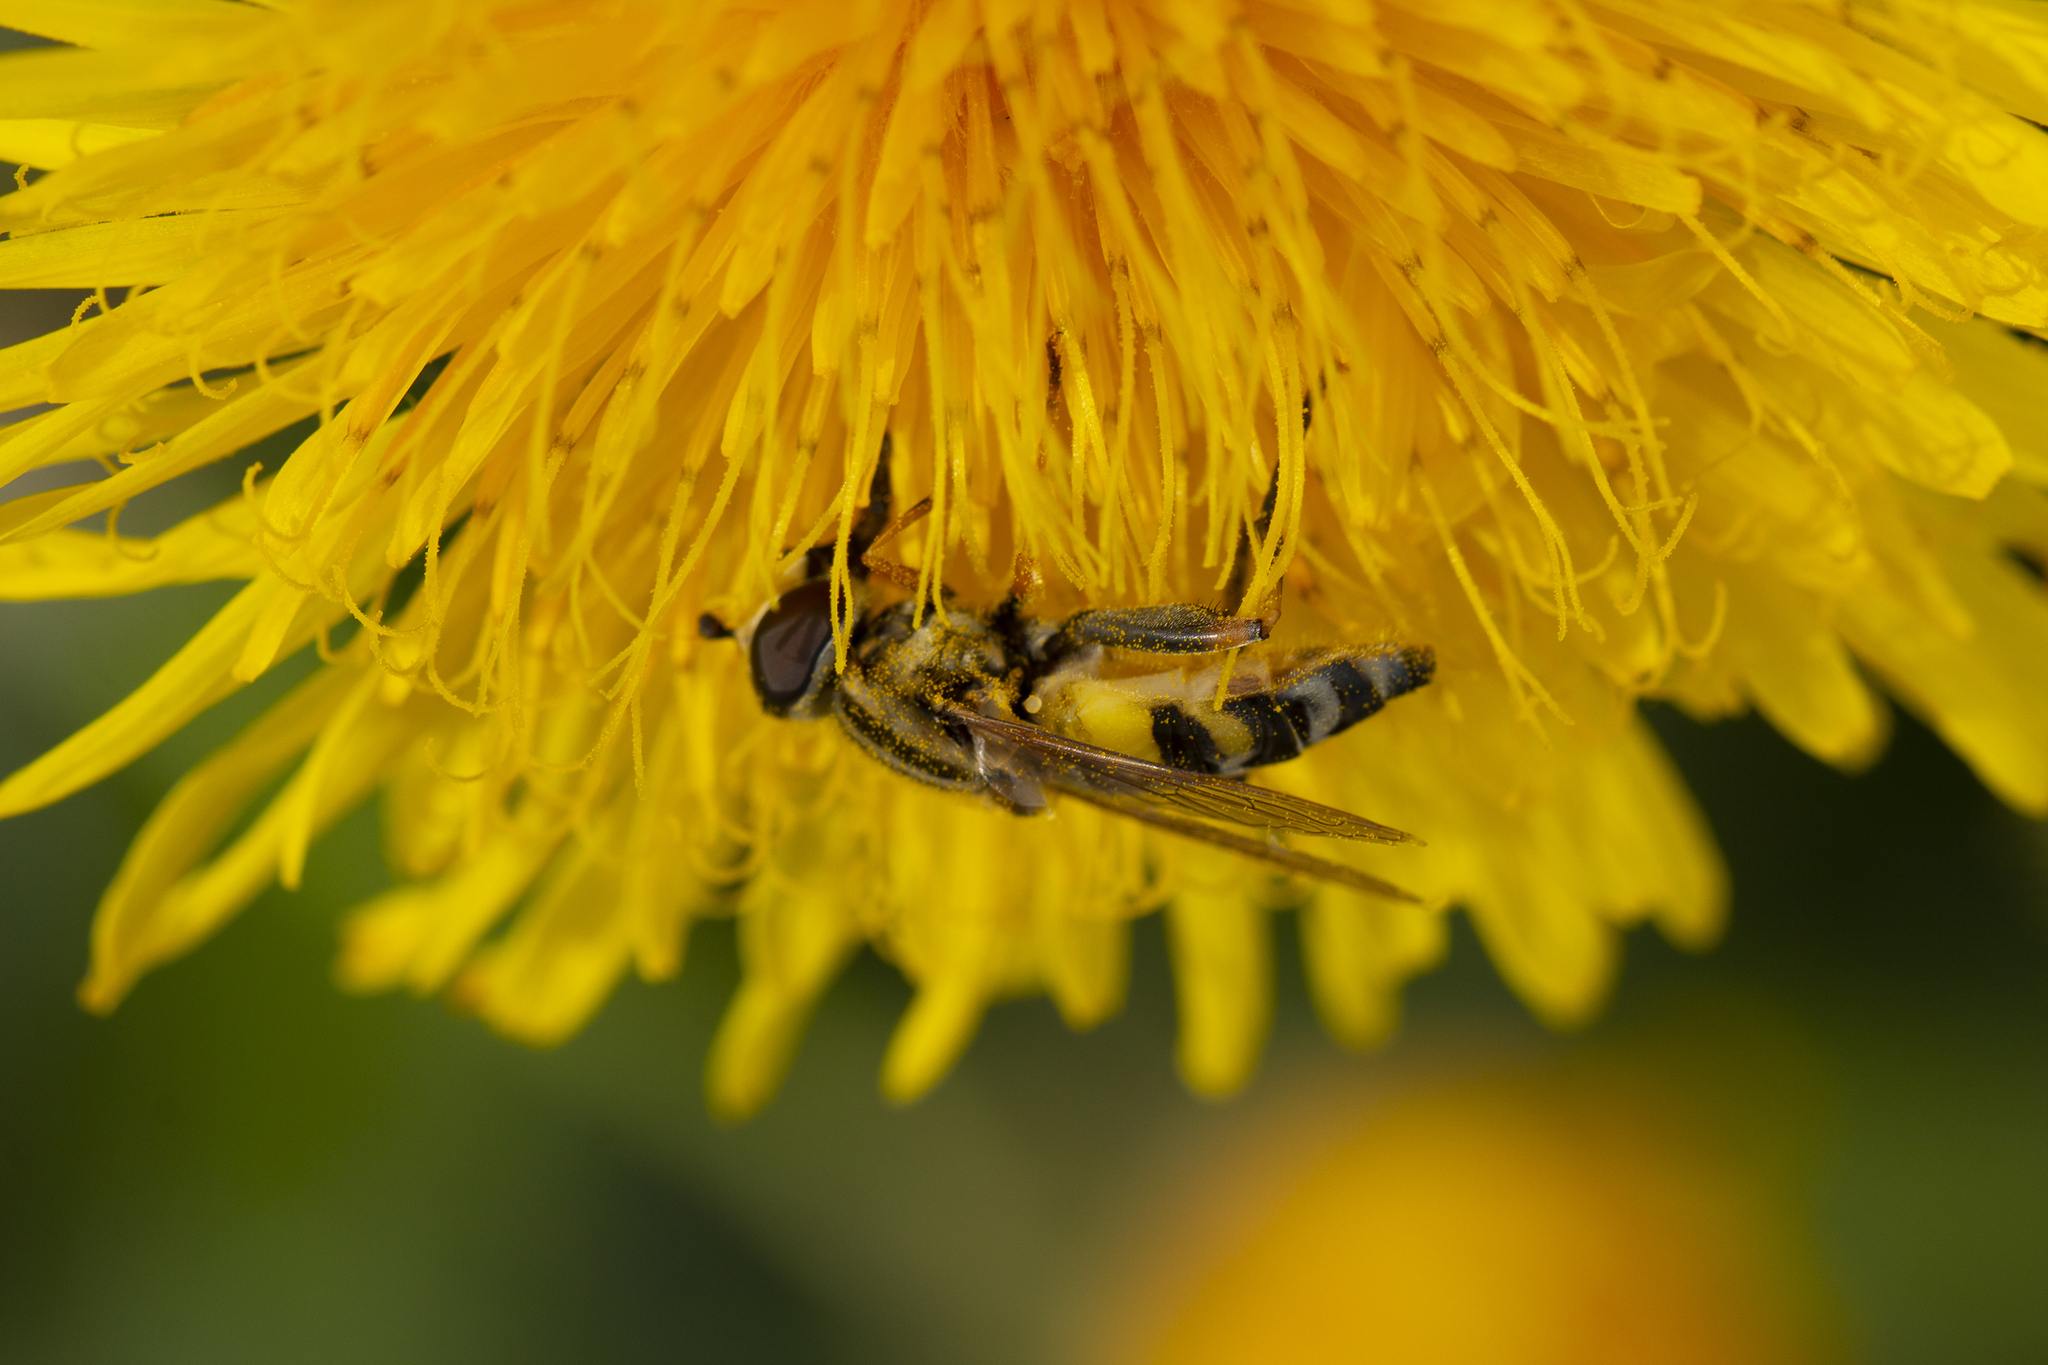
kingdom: Animalia
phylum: Arthropoda
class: Insecta
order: Diptera
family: Syrphidae
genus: Helophilus
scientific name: Helophilus trivittatus
